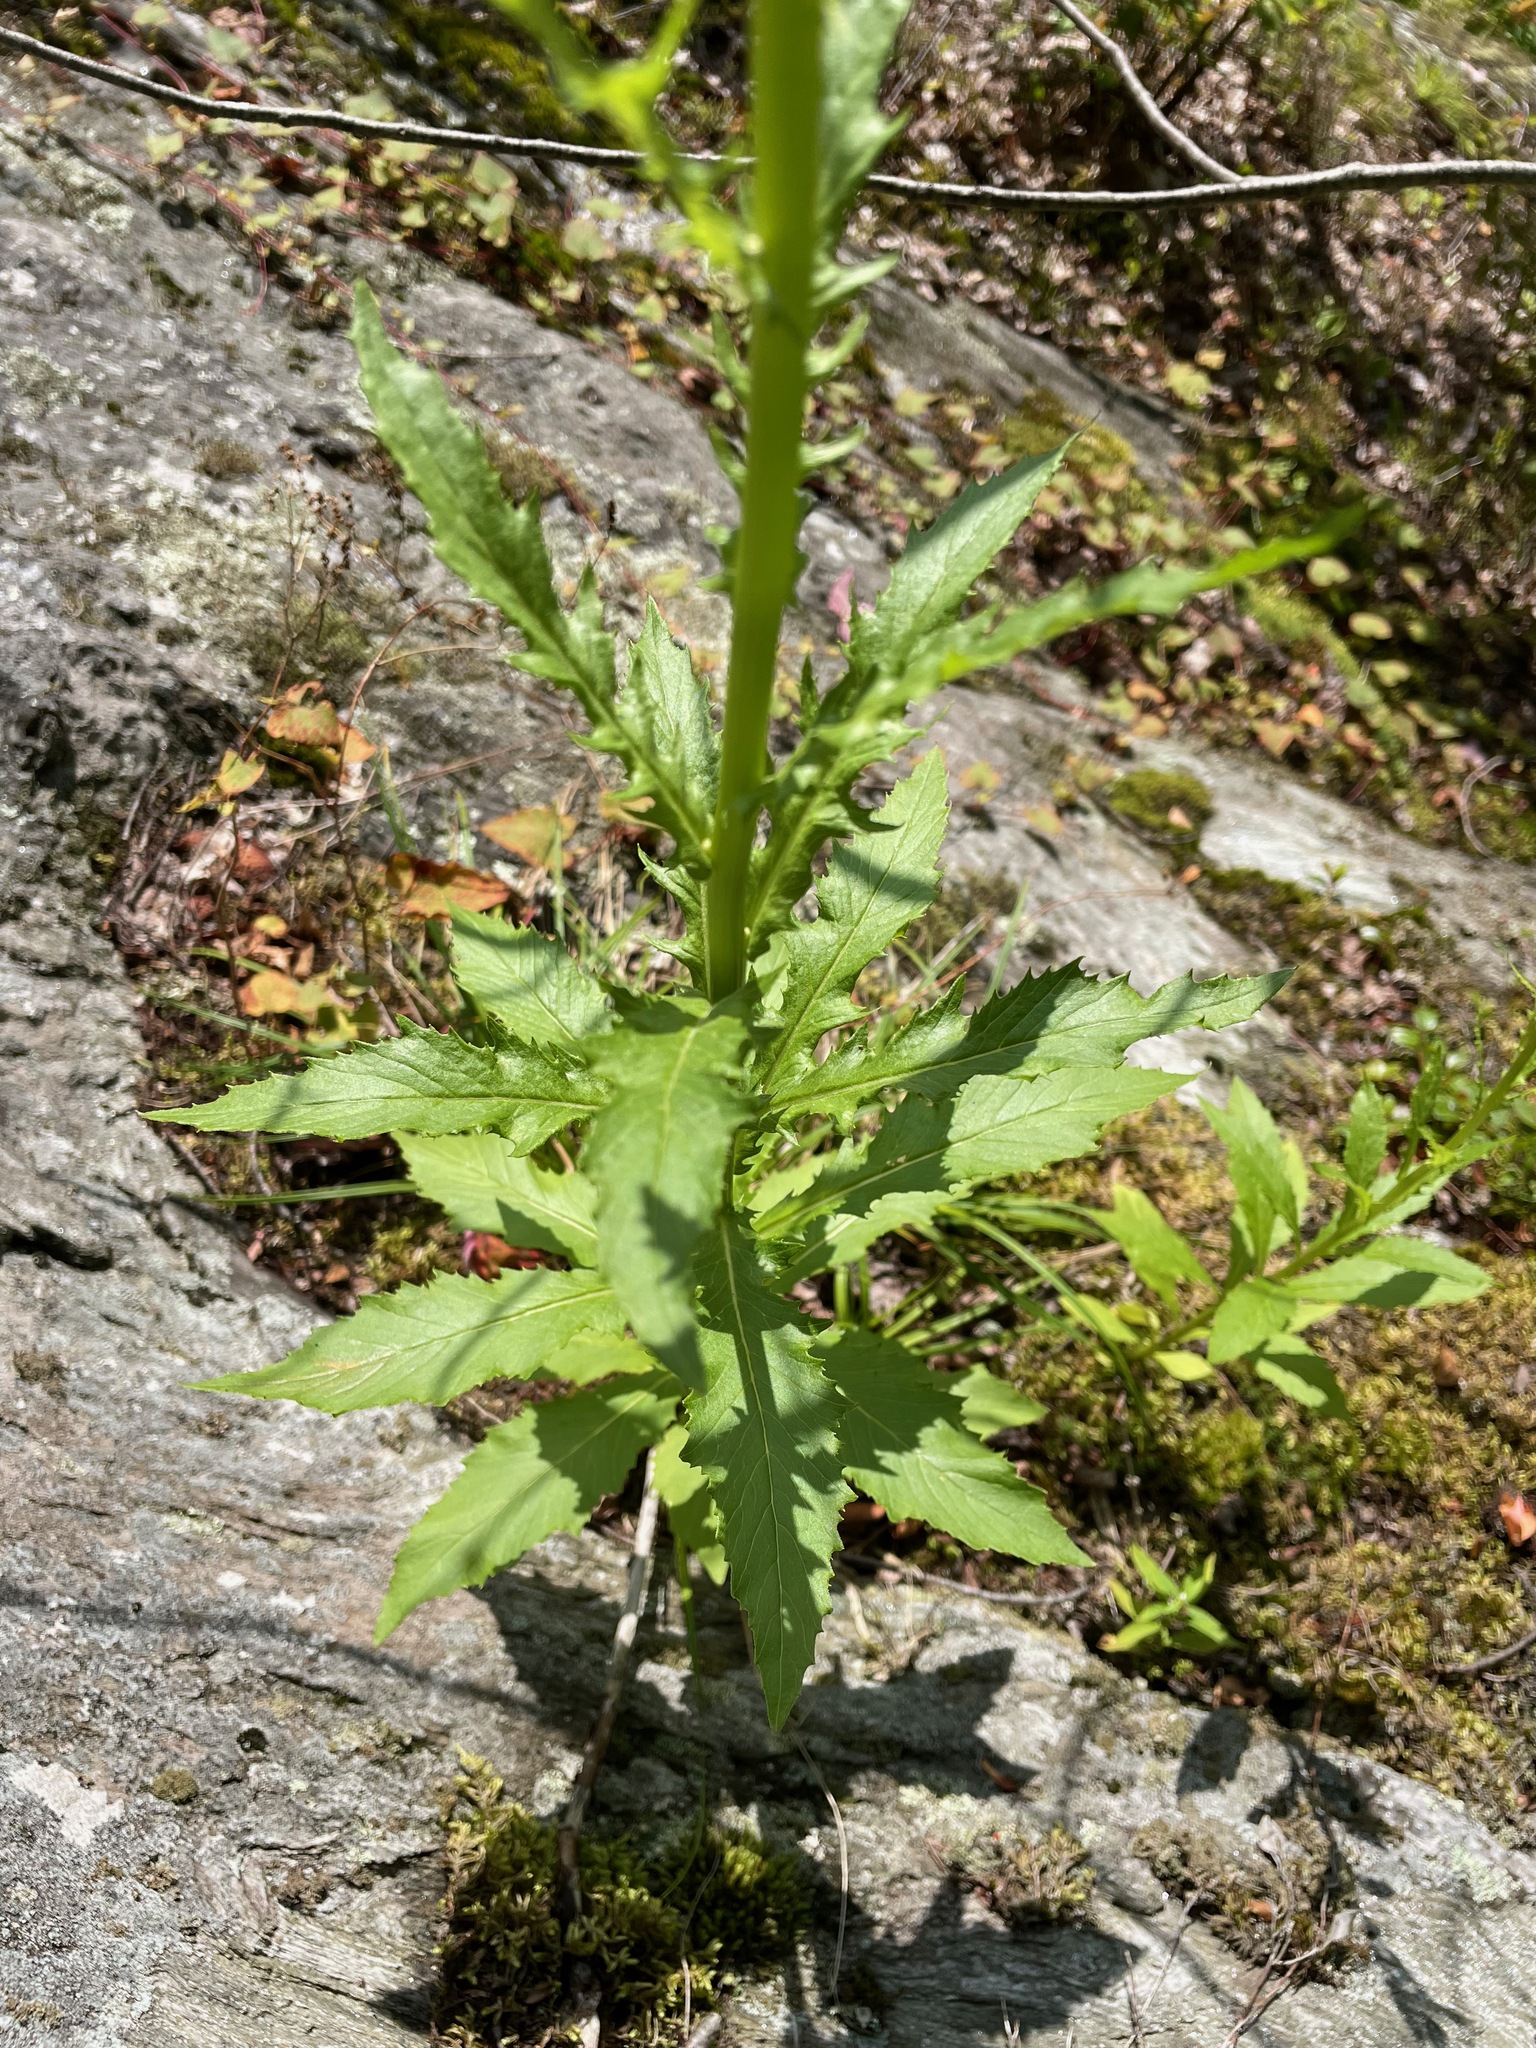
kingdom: Plantae
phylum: Tracheophyta
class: Magnoliopsida
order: Asterales
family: Asteraceae
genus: Erechtites
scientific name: Erechtites hieraciifolius
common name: American burnweed
